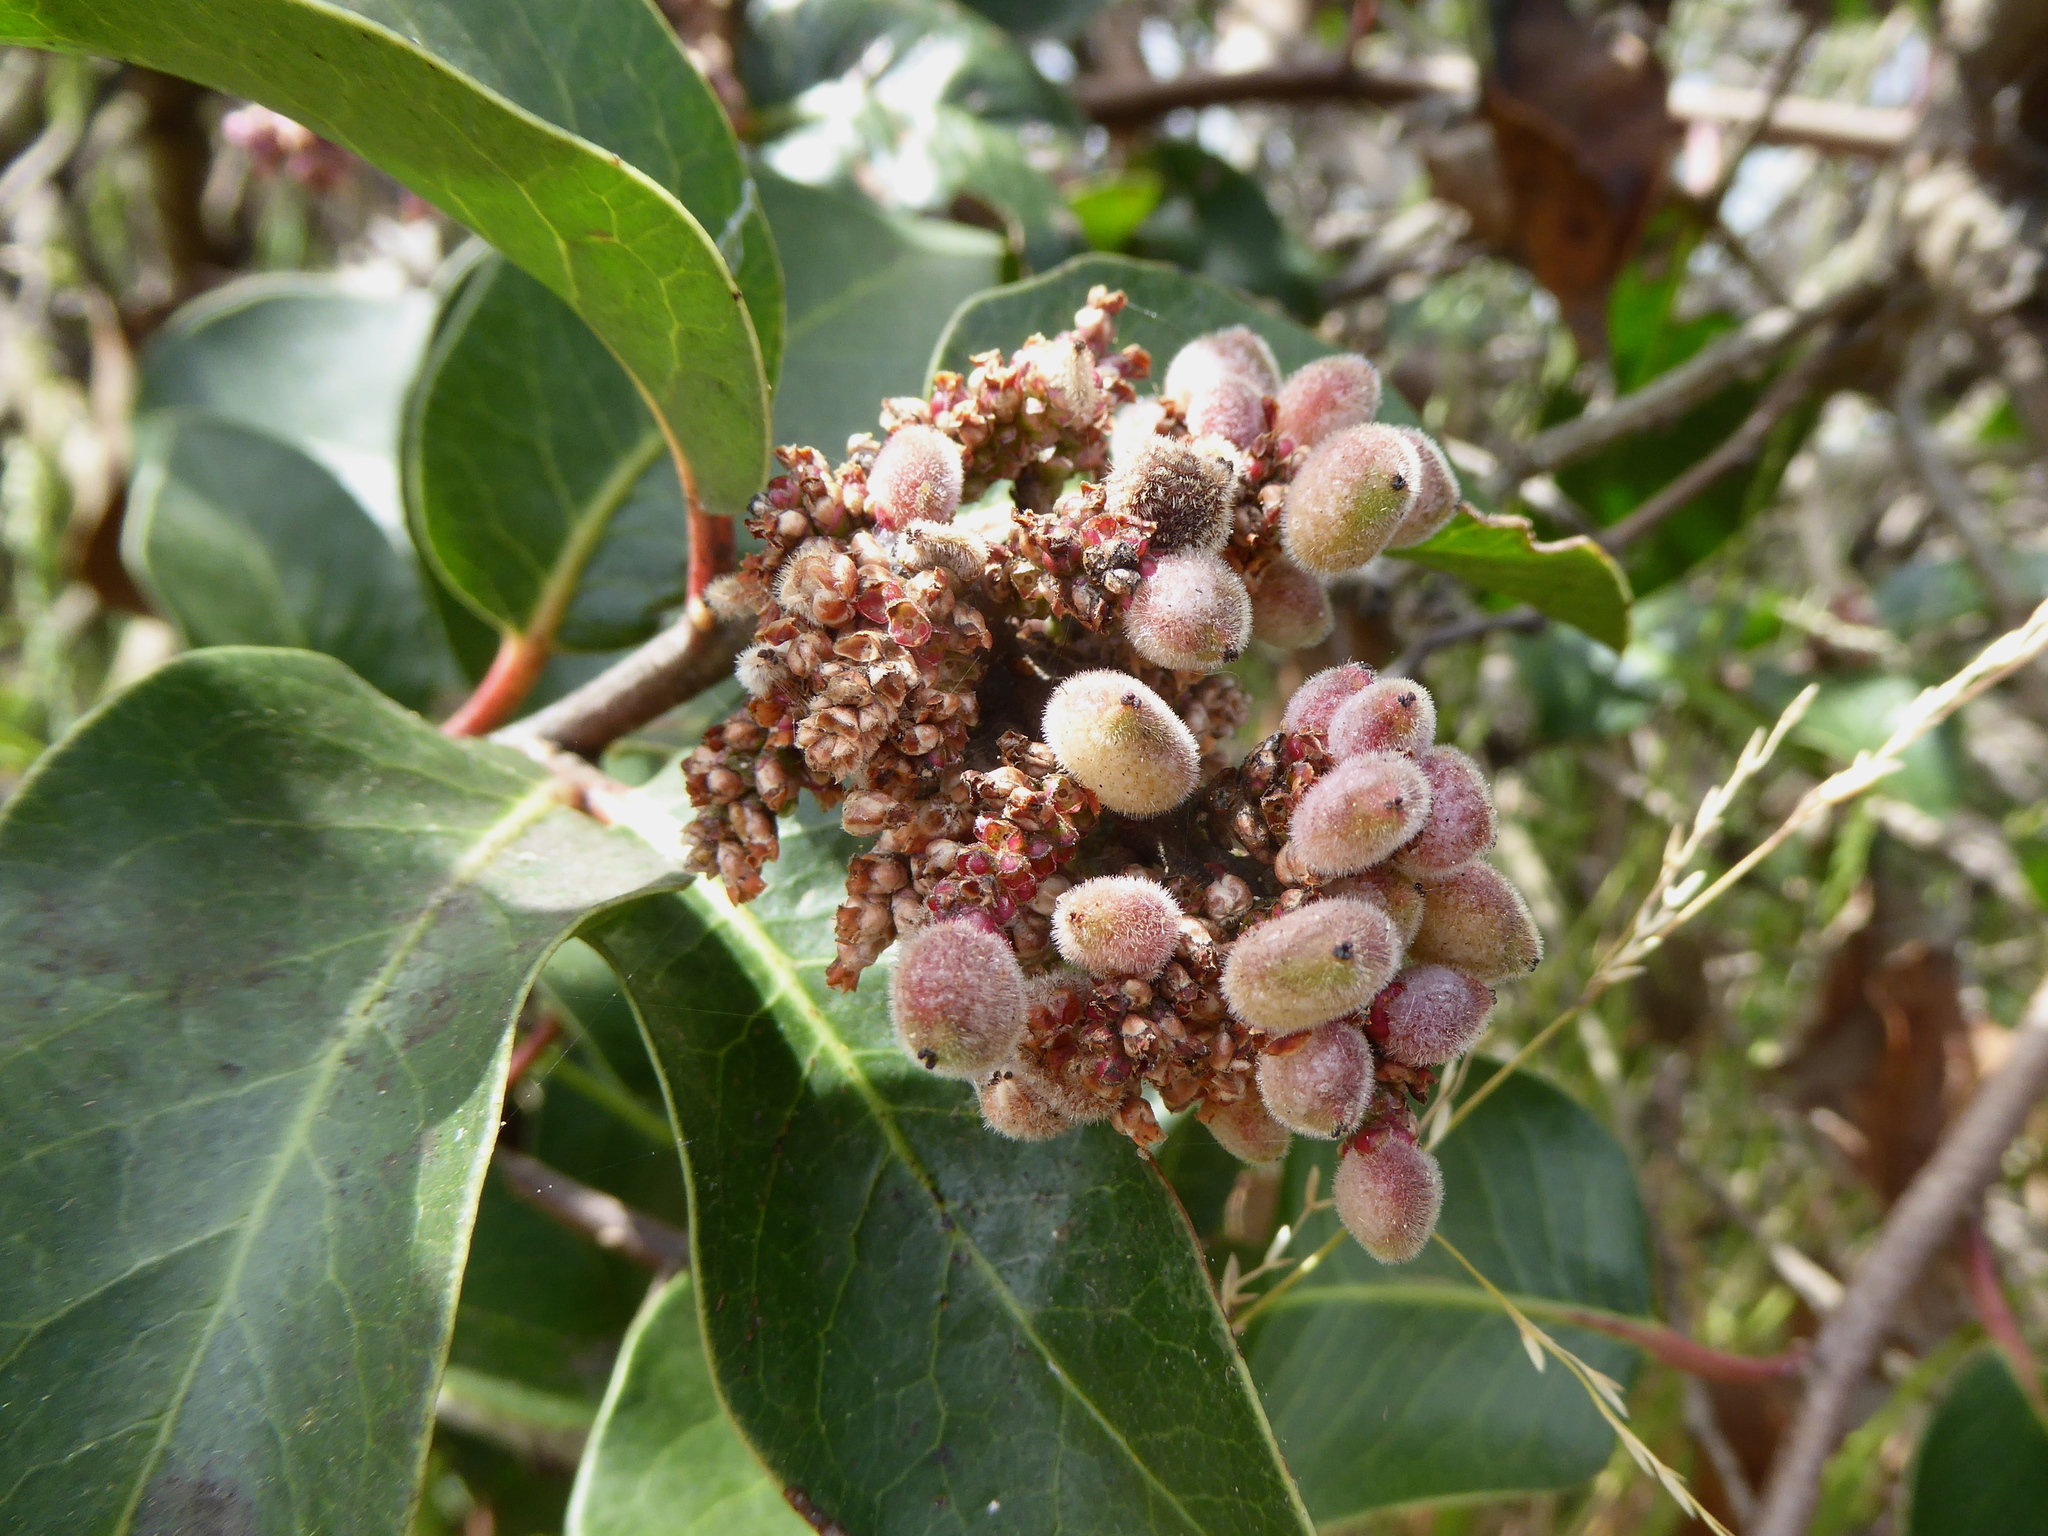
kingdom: Plantae
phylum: Tracheophyta
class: Magnoliopsida
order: Sapindales
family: Anacardiaceae
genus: Rhus
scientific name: Rhus ovata
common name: Sugar sumac
